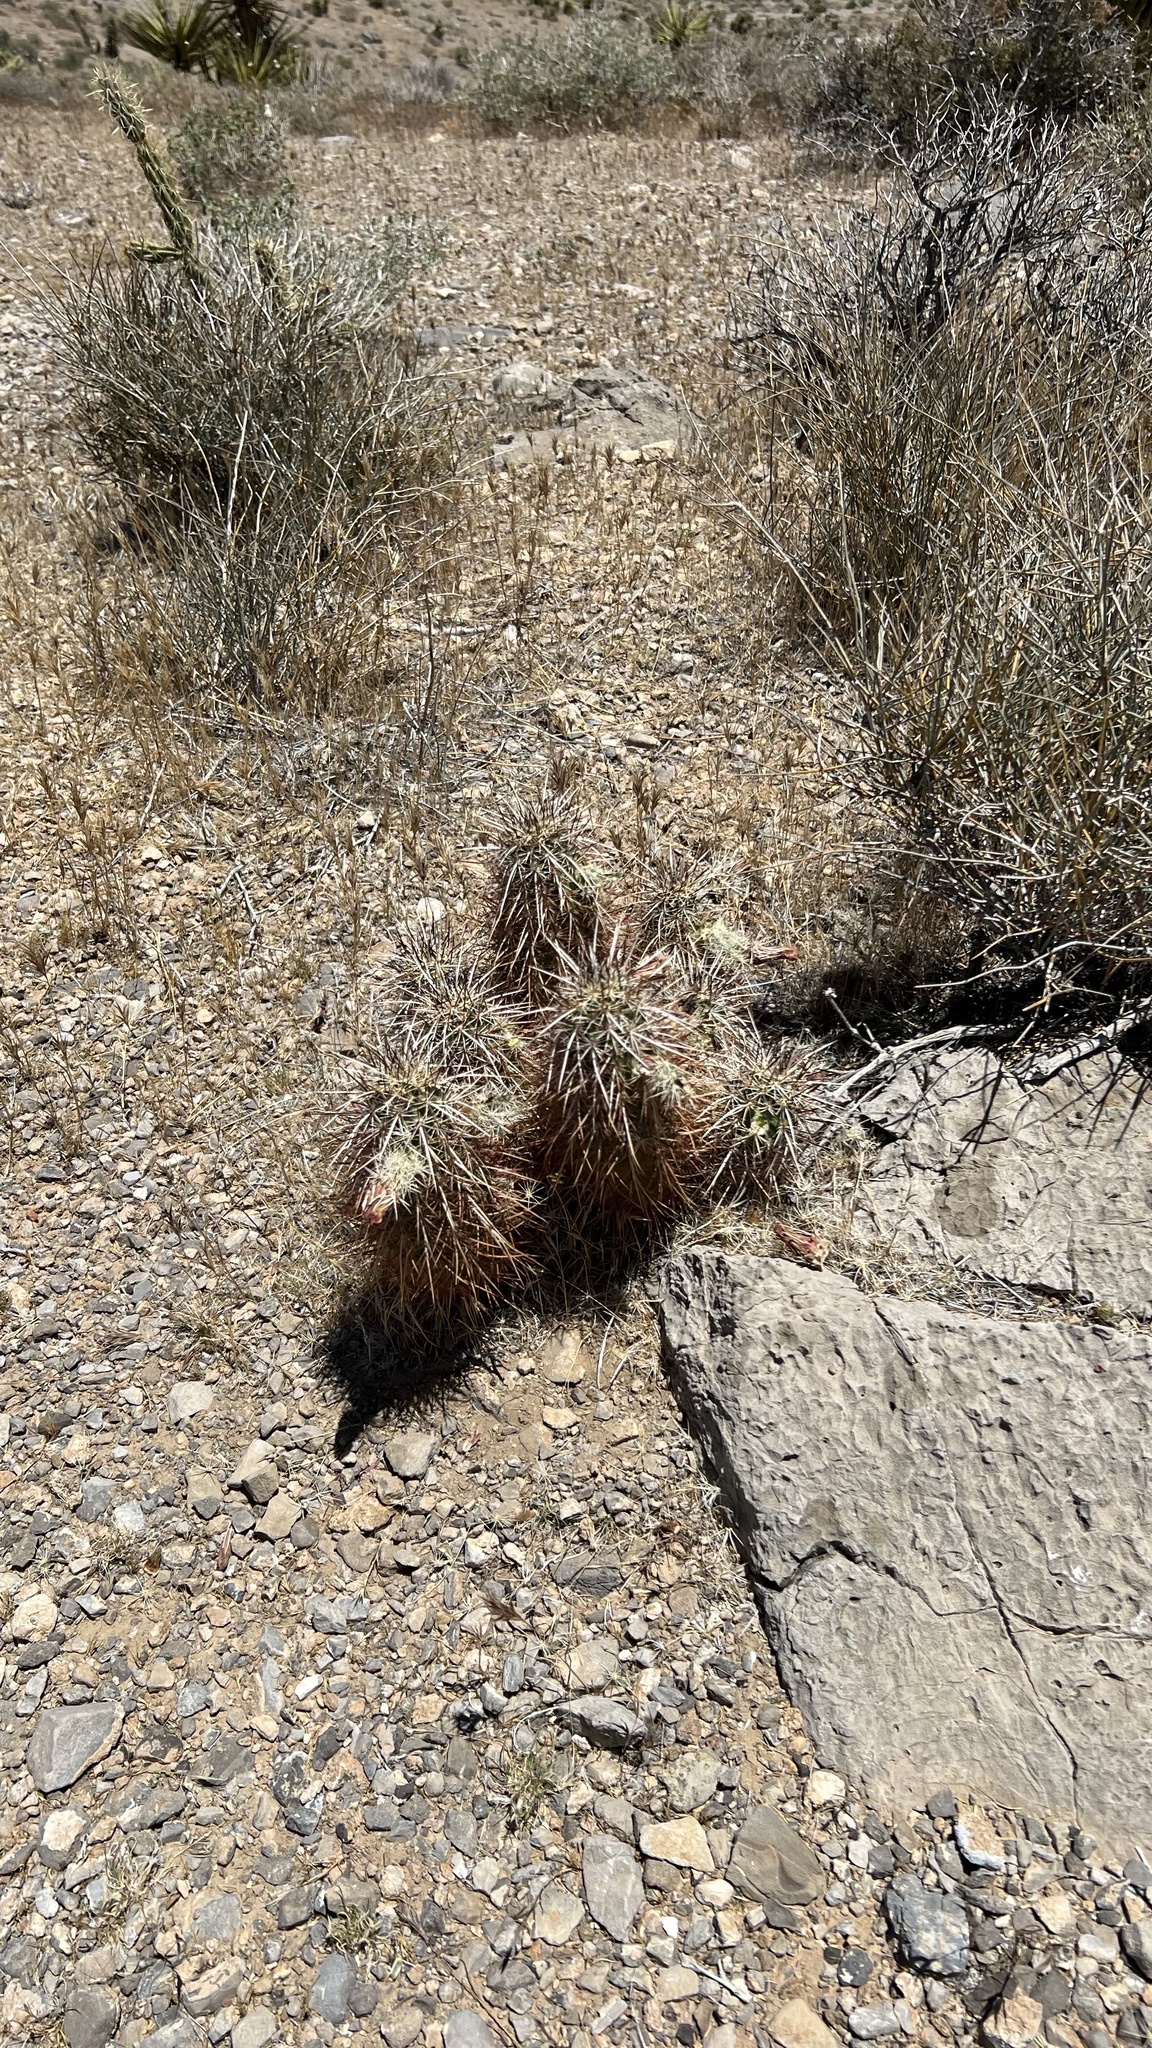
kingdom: Plantae
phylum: Tracheophyta
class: Magnoliopsida
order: Caryophyllales
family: Cactaceae
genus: Echinocereus
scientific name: Echinocereus engelmannii
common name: Engelmann's hedgehog cactus
